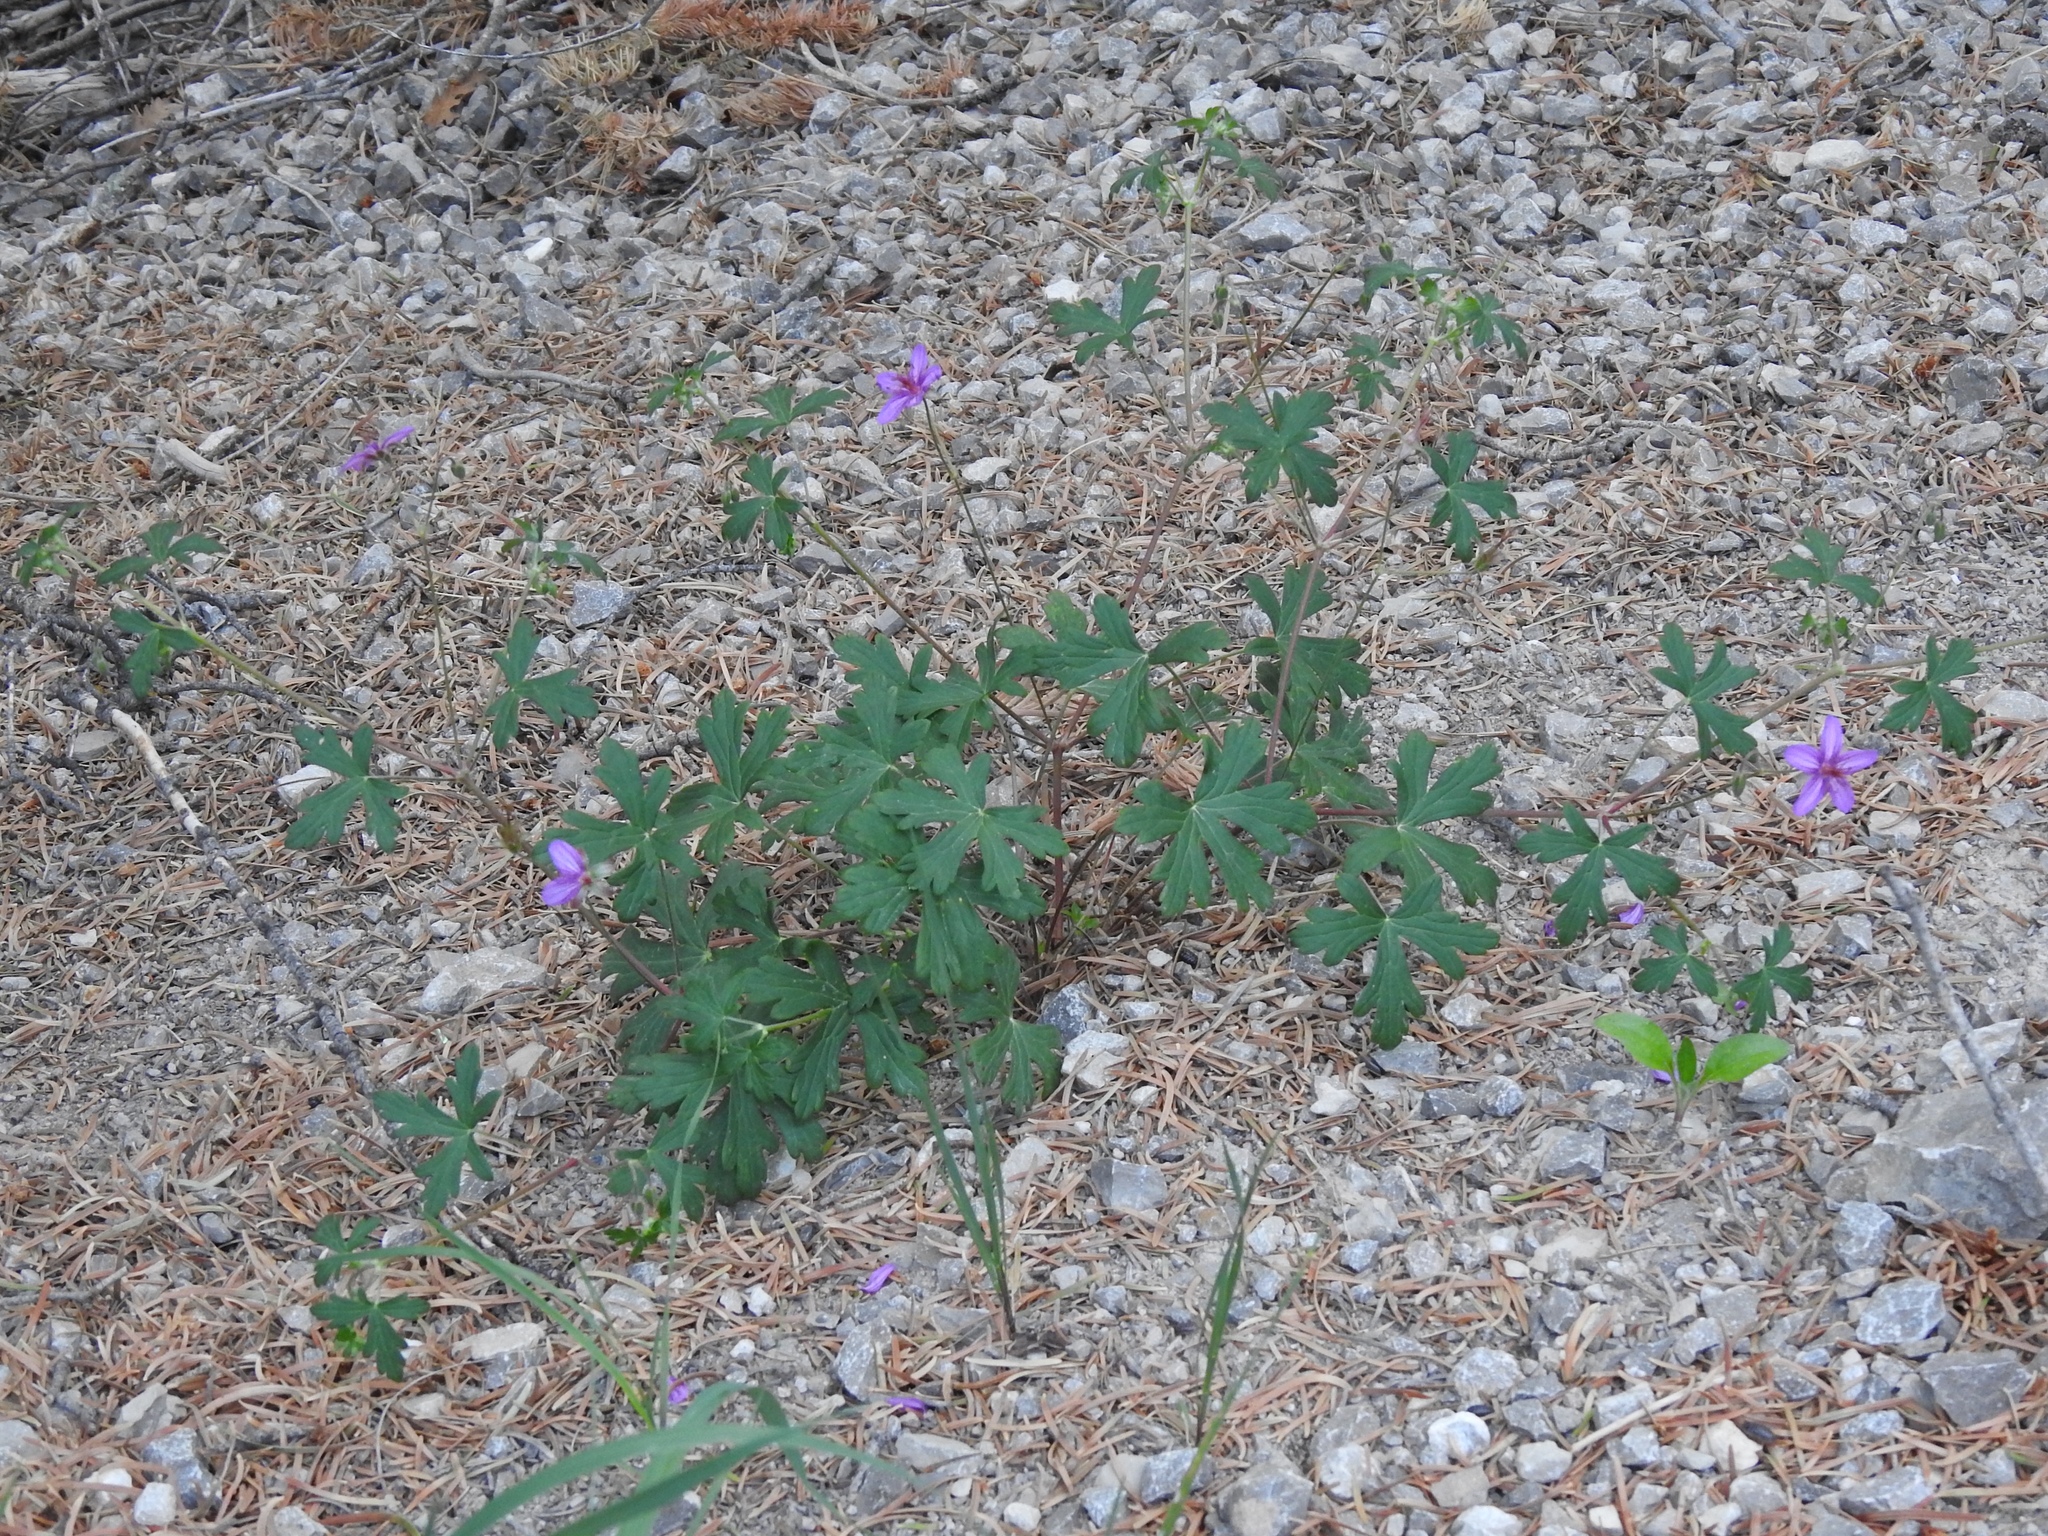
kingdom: Plantae
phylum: Tracheophyta
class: Magnoliopsida
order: Geraniales
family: Geraniaceae
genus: Geranium
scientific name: Geranium caespitosum
